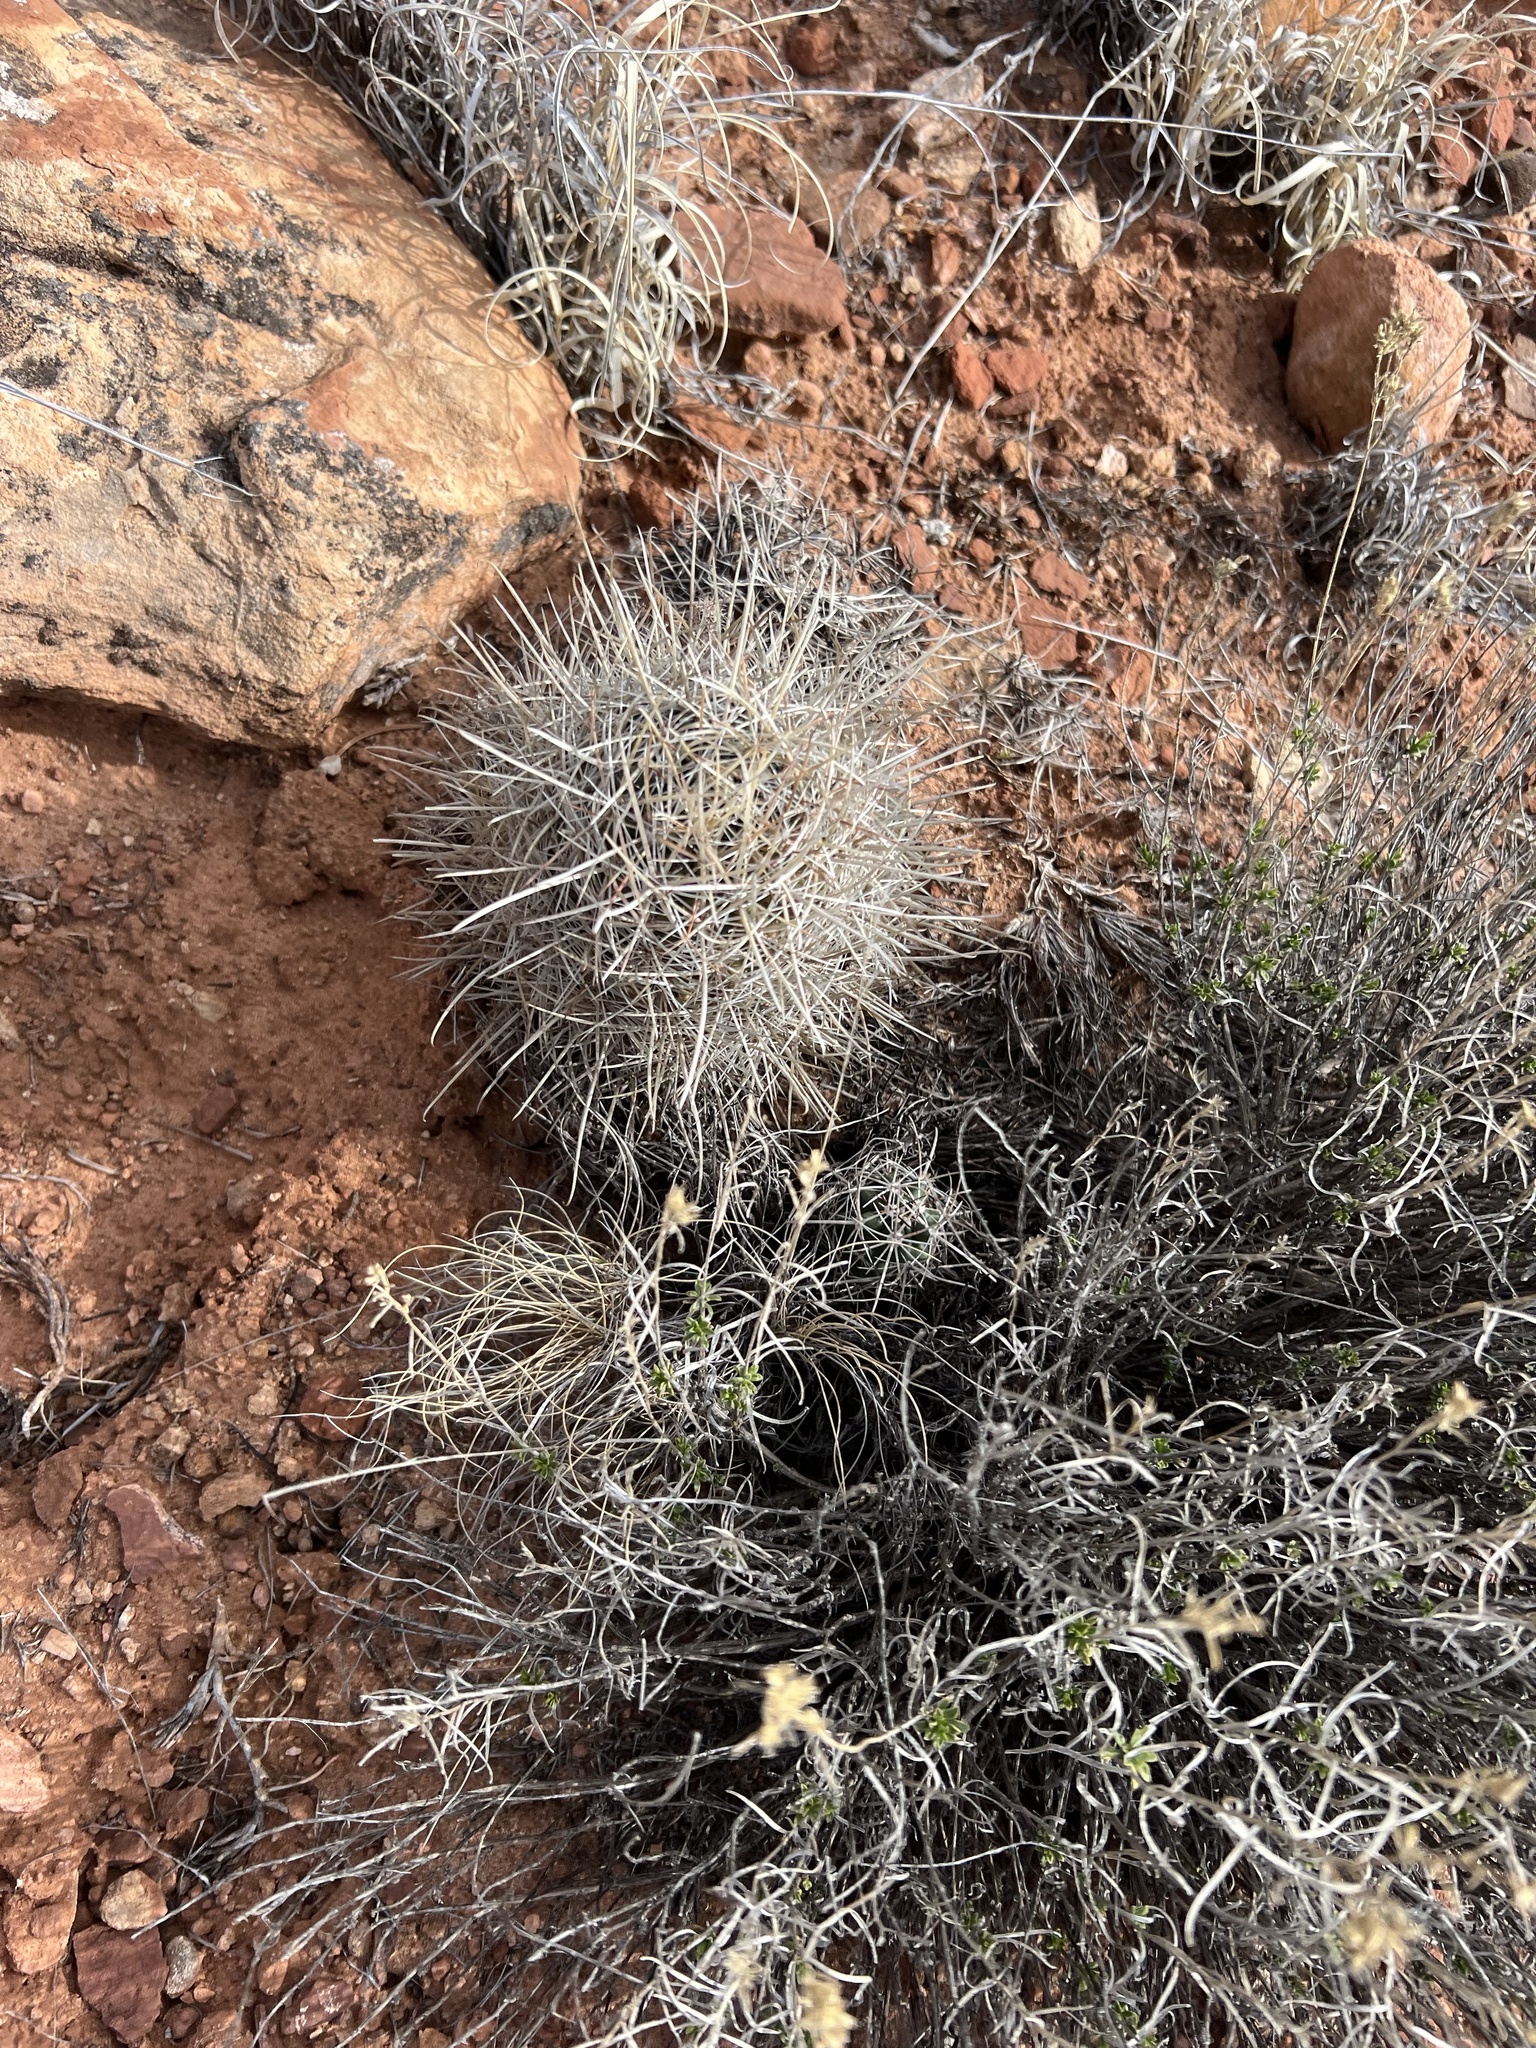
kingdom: Plantae
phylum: Tracheophyta
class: Magnoliopsida
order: Caryophyllales
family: Cactaceae
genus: Sclerocactus
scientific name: Sclerocactus parviflorus
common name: Small-flower fishhook cactus
